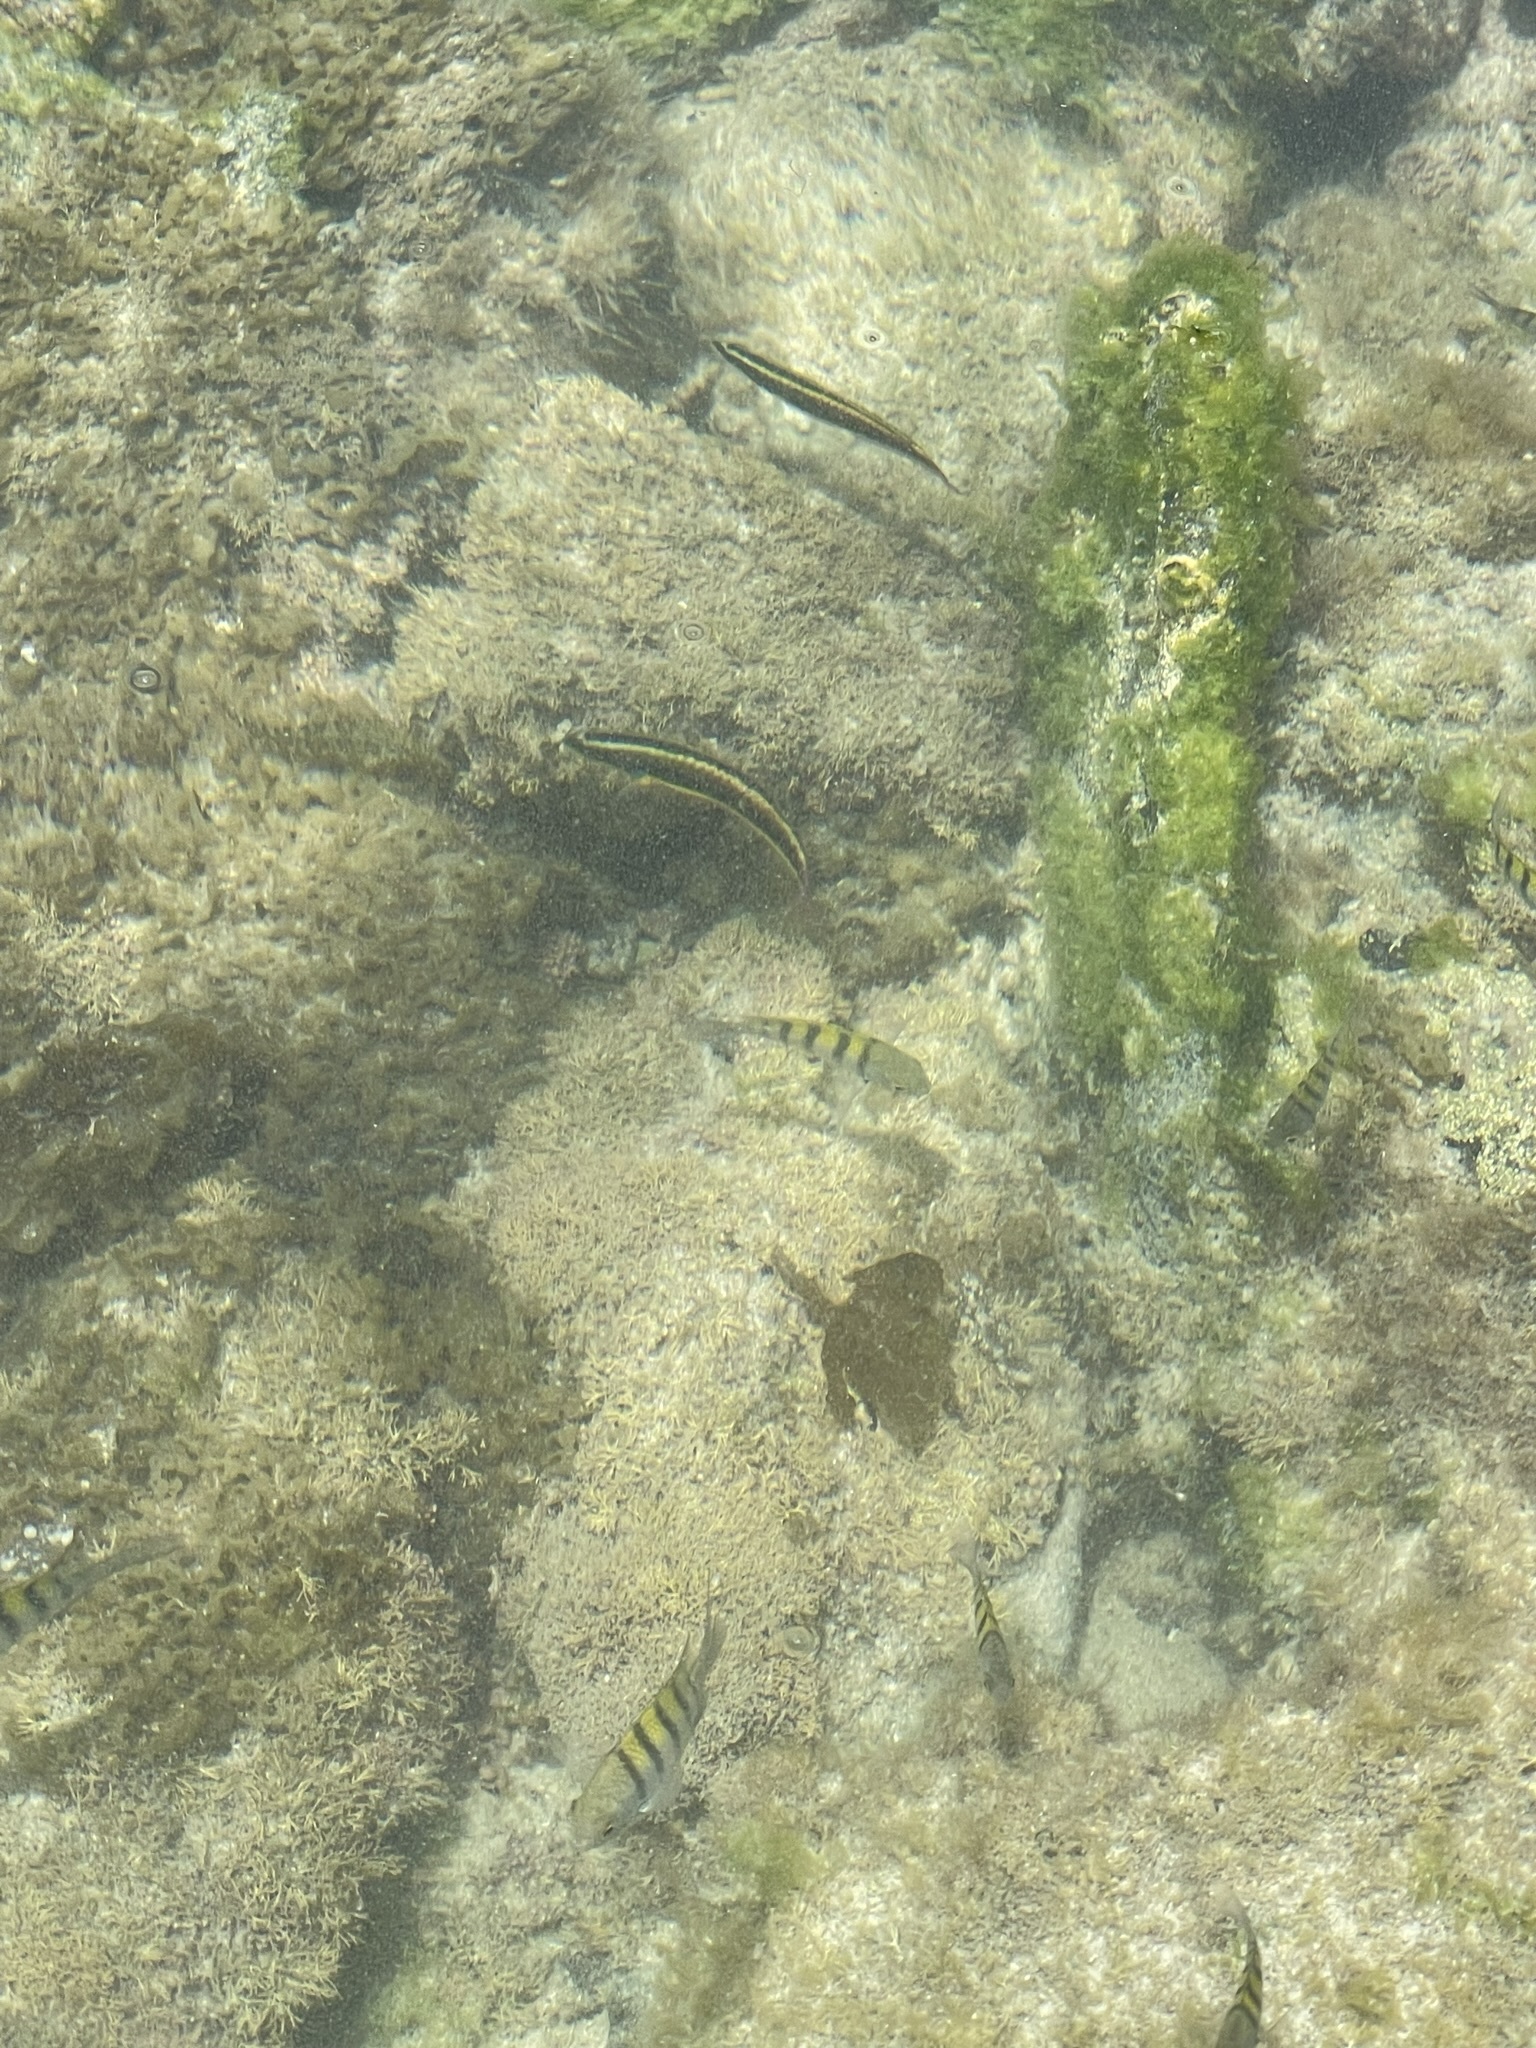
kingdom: Animalia
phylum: Chordata
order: Perciformes
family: Labridae
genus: Thalassoma
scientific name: Thalassoma lucasanum
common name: Cortez rainbow wrasse
